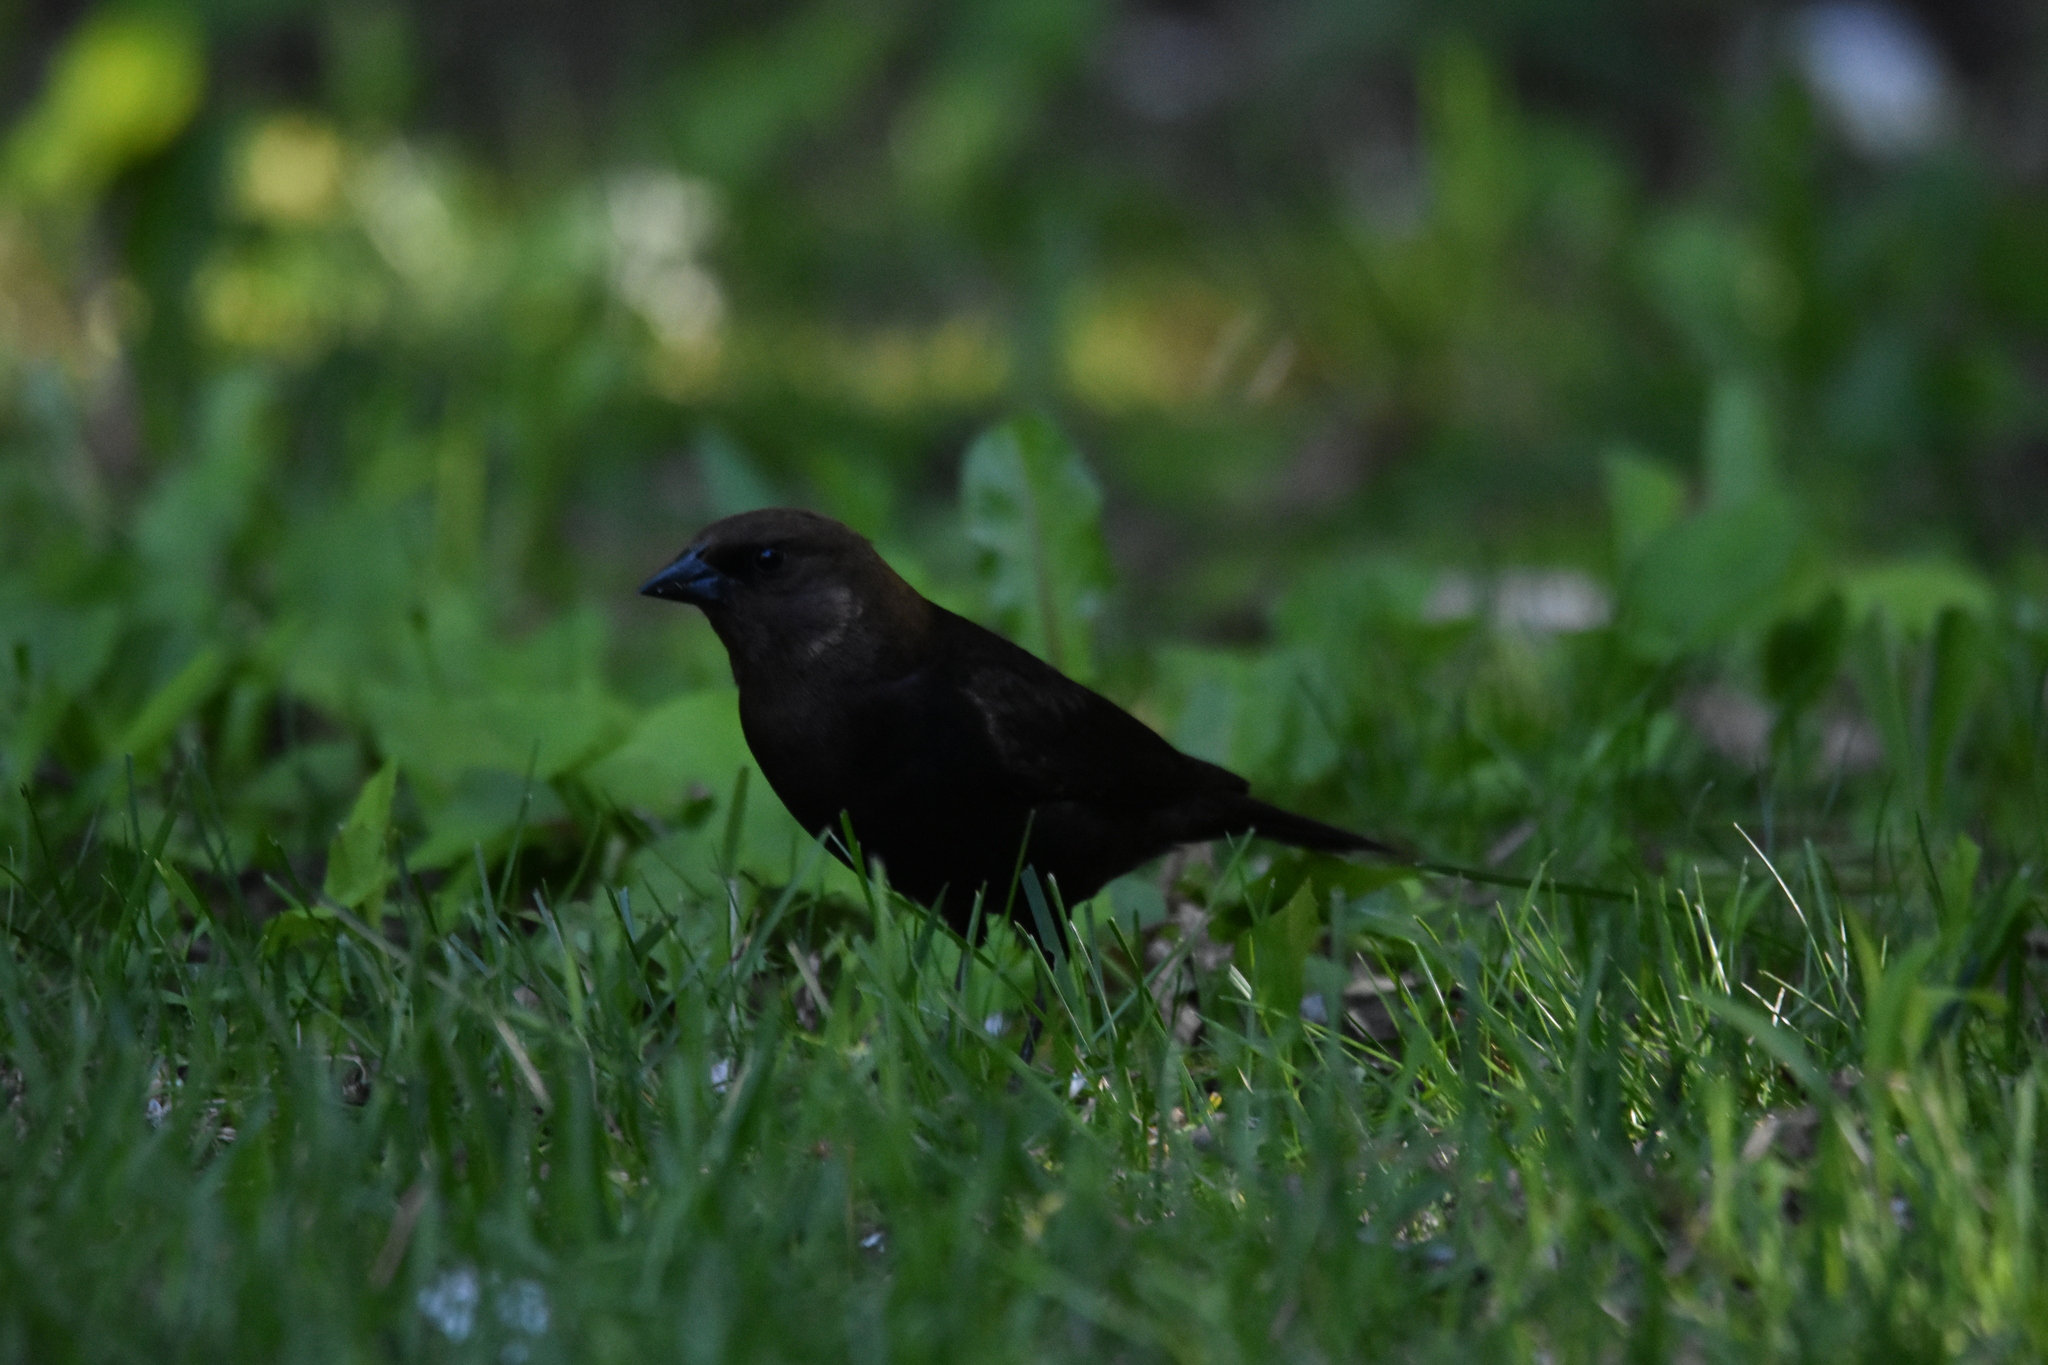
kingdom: Animalia
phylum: Chordata
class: Aves
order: Passeriformes
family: Icteridae
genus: Molothrus
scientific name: Molothrus ater
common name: Brown-headed cowbird
